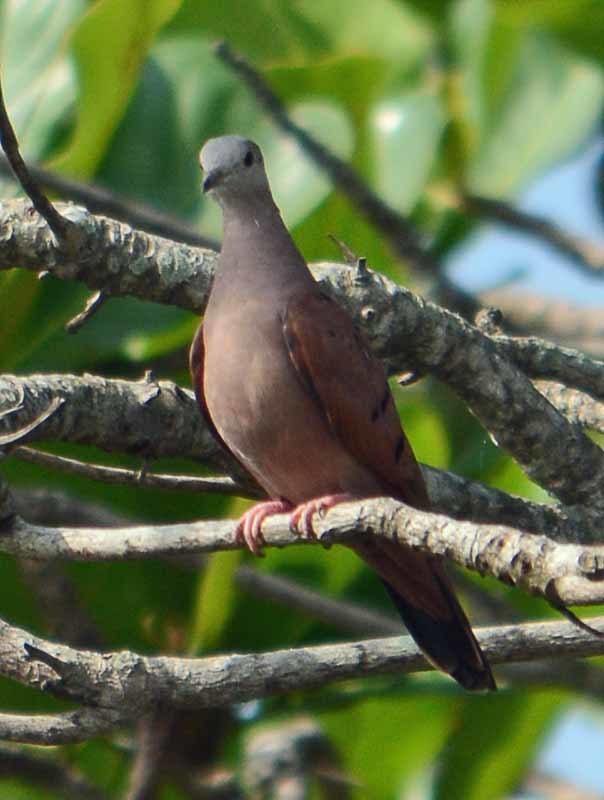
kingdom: Animalia
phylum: Chordata
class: Aves
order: Columbiformes
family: Columbidae
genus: Columbina
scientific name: Columbina talpacoti
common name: Ruddy ground dove
